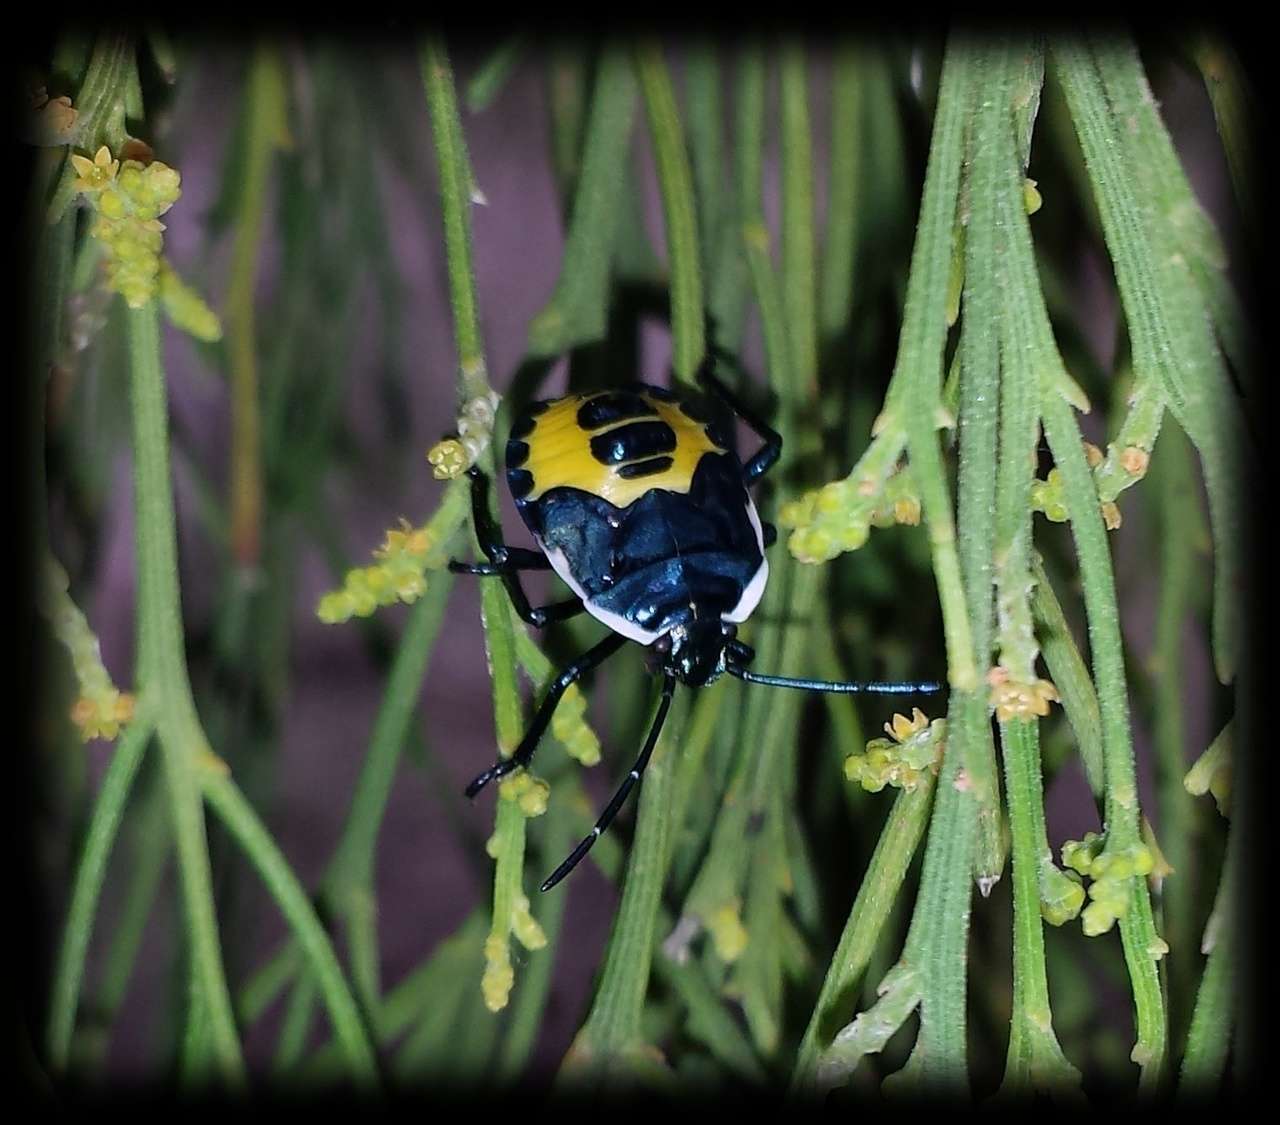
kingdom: Animalia
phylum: Arthropoda
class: Insecta
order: Hemiptera
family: Pentatomidae
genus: Commius
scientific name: Commius
